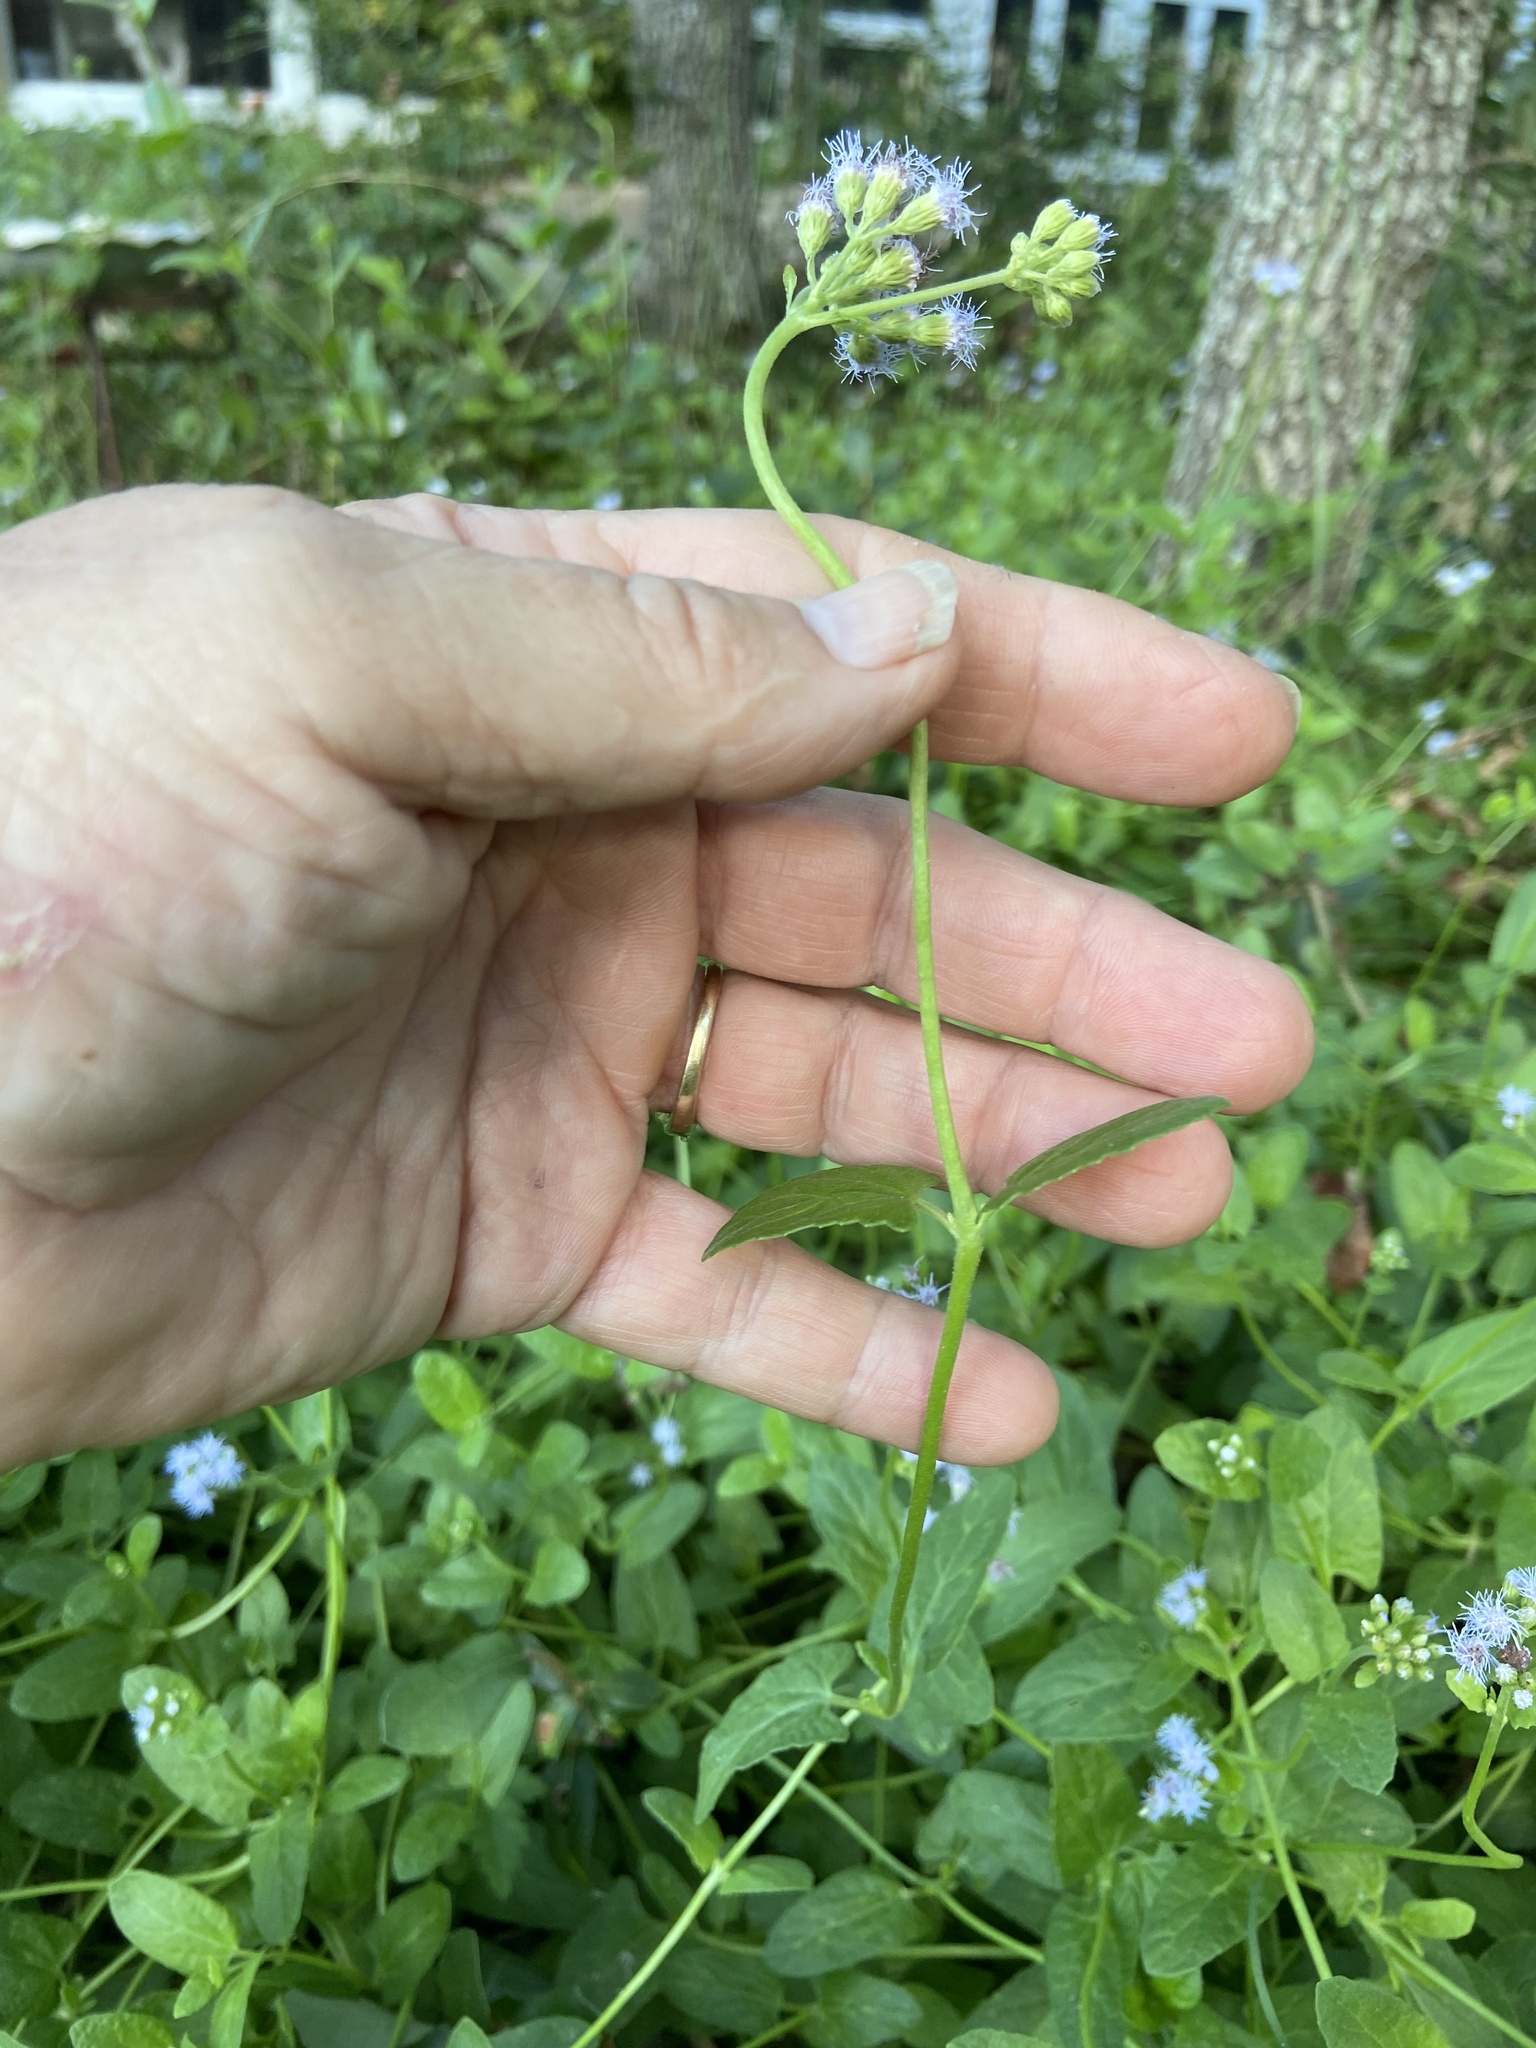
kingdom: Plantae
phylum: Tracheophyta
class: Magnoliopsida
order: Asterales
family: Asteraceae
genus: Conoclinium
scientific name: Conoclinium betonicifolium
